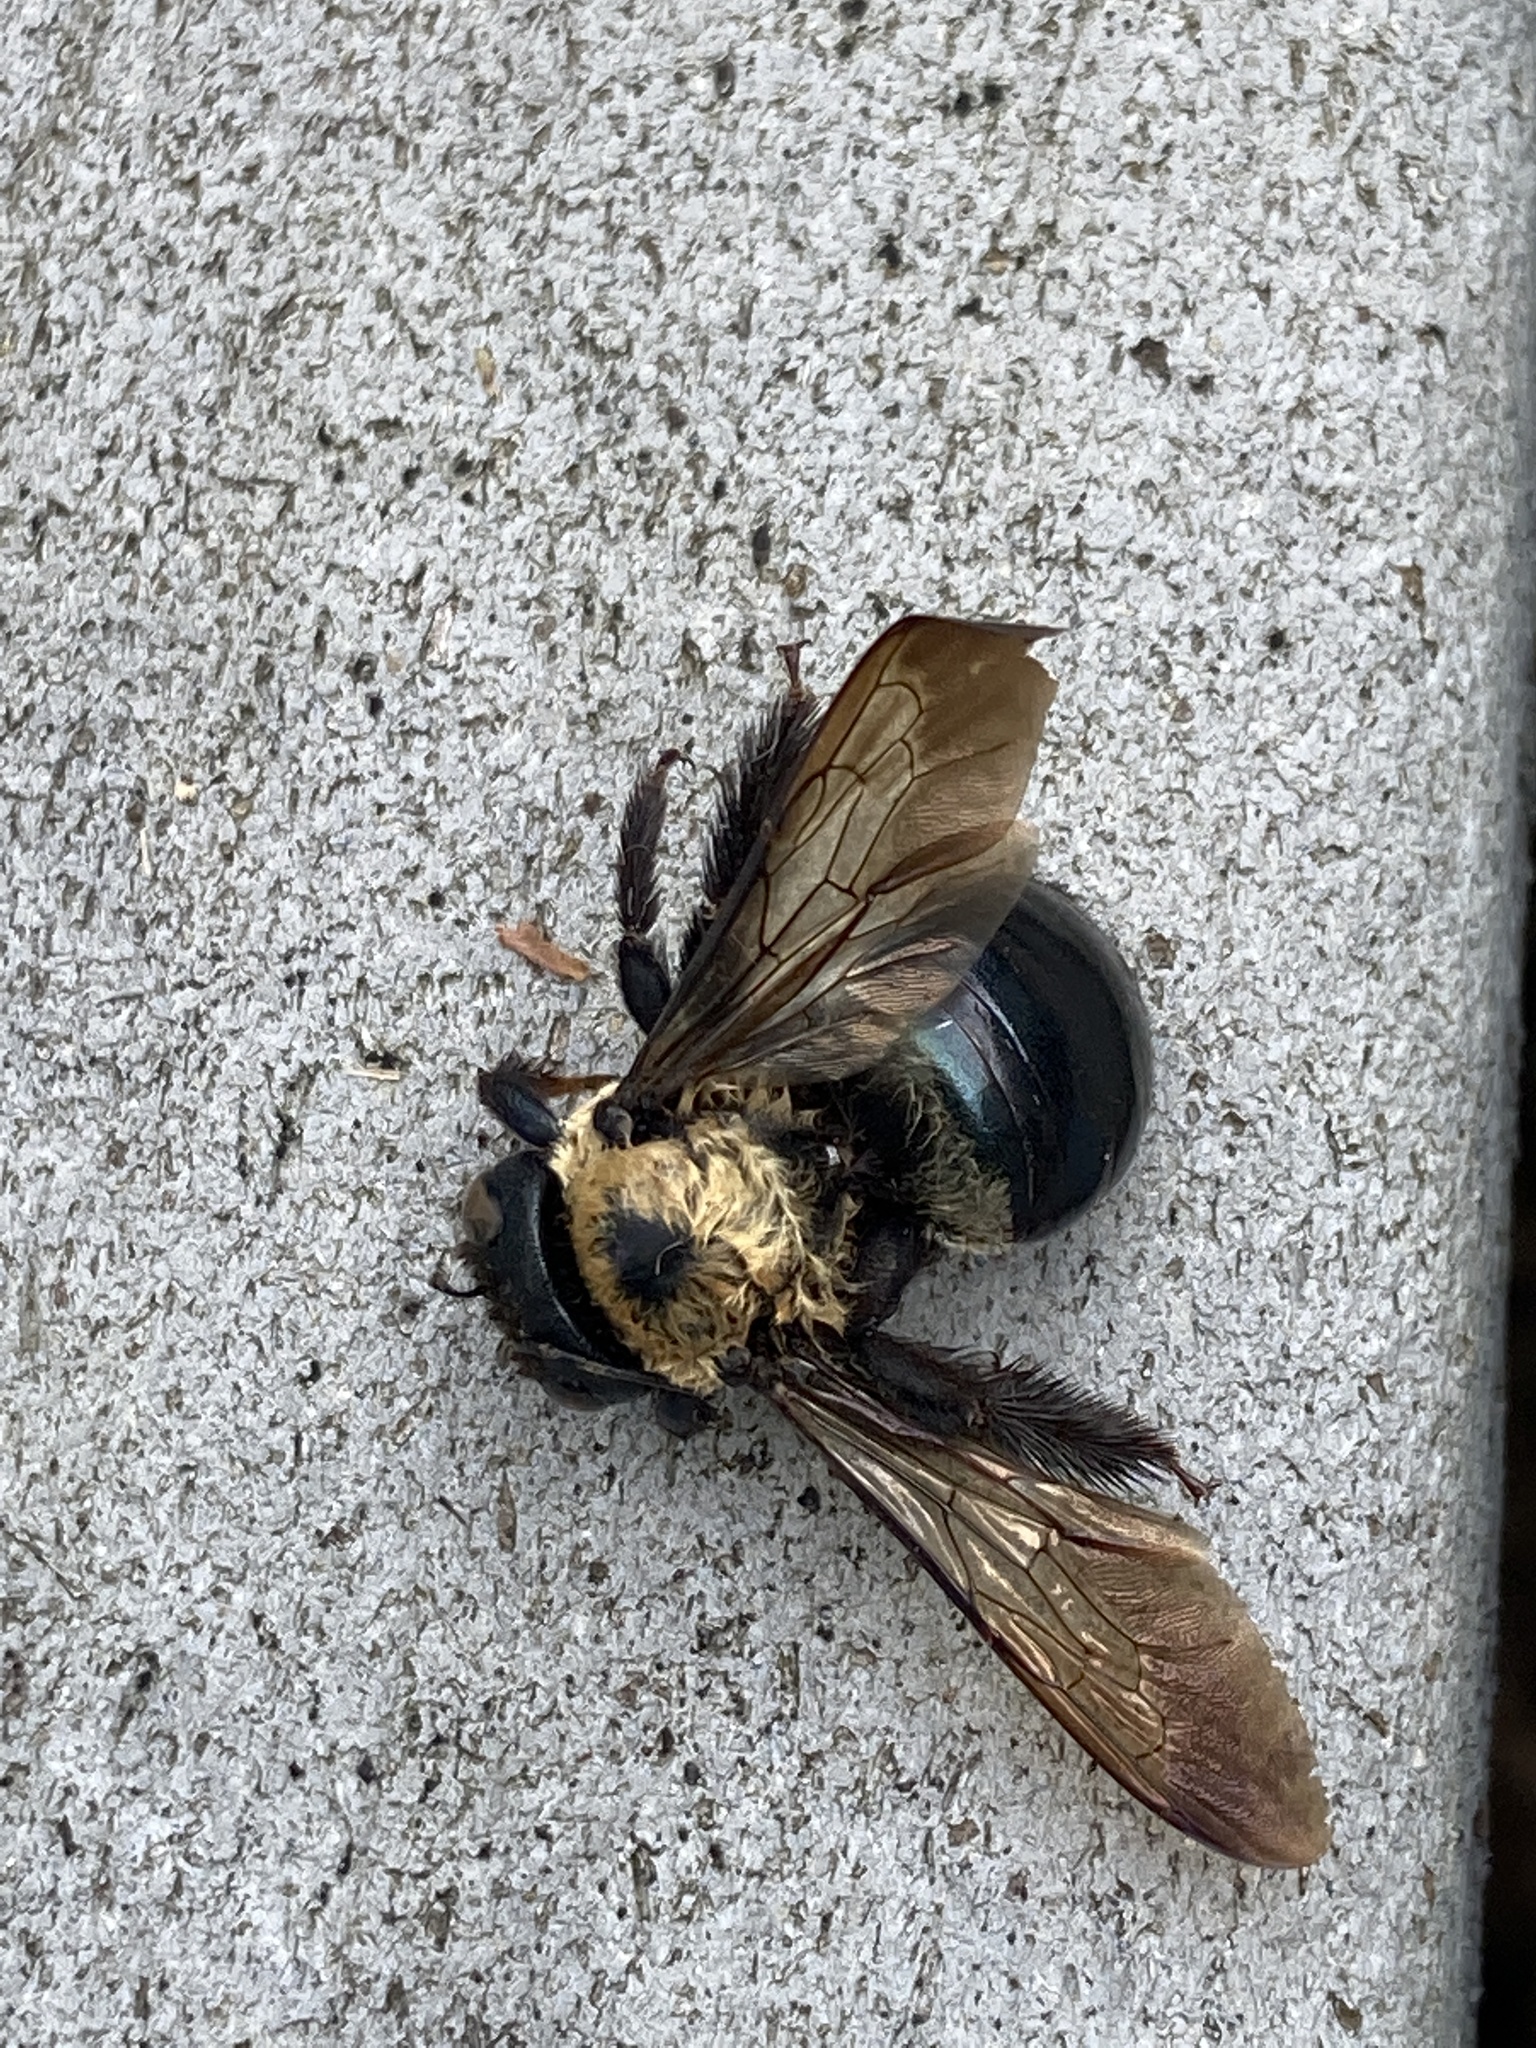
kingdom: Animalia
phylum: Arthropoda
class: Insecta
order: Hymenoptera
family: Apidae
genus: Xylocopa
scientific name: Xylocopa virginica
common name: Carpenter bee
